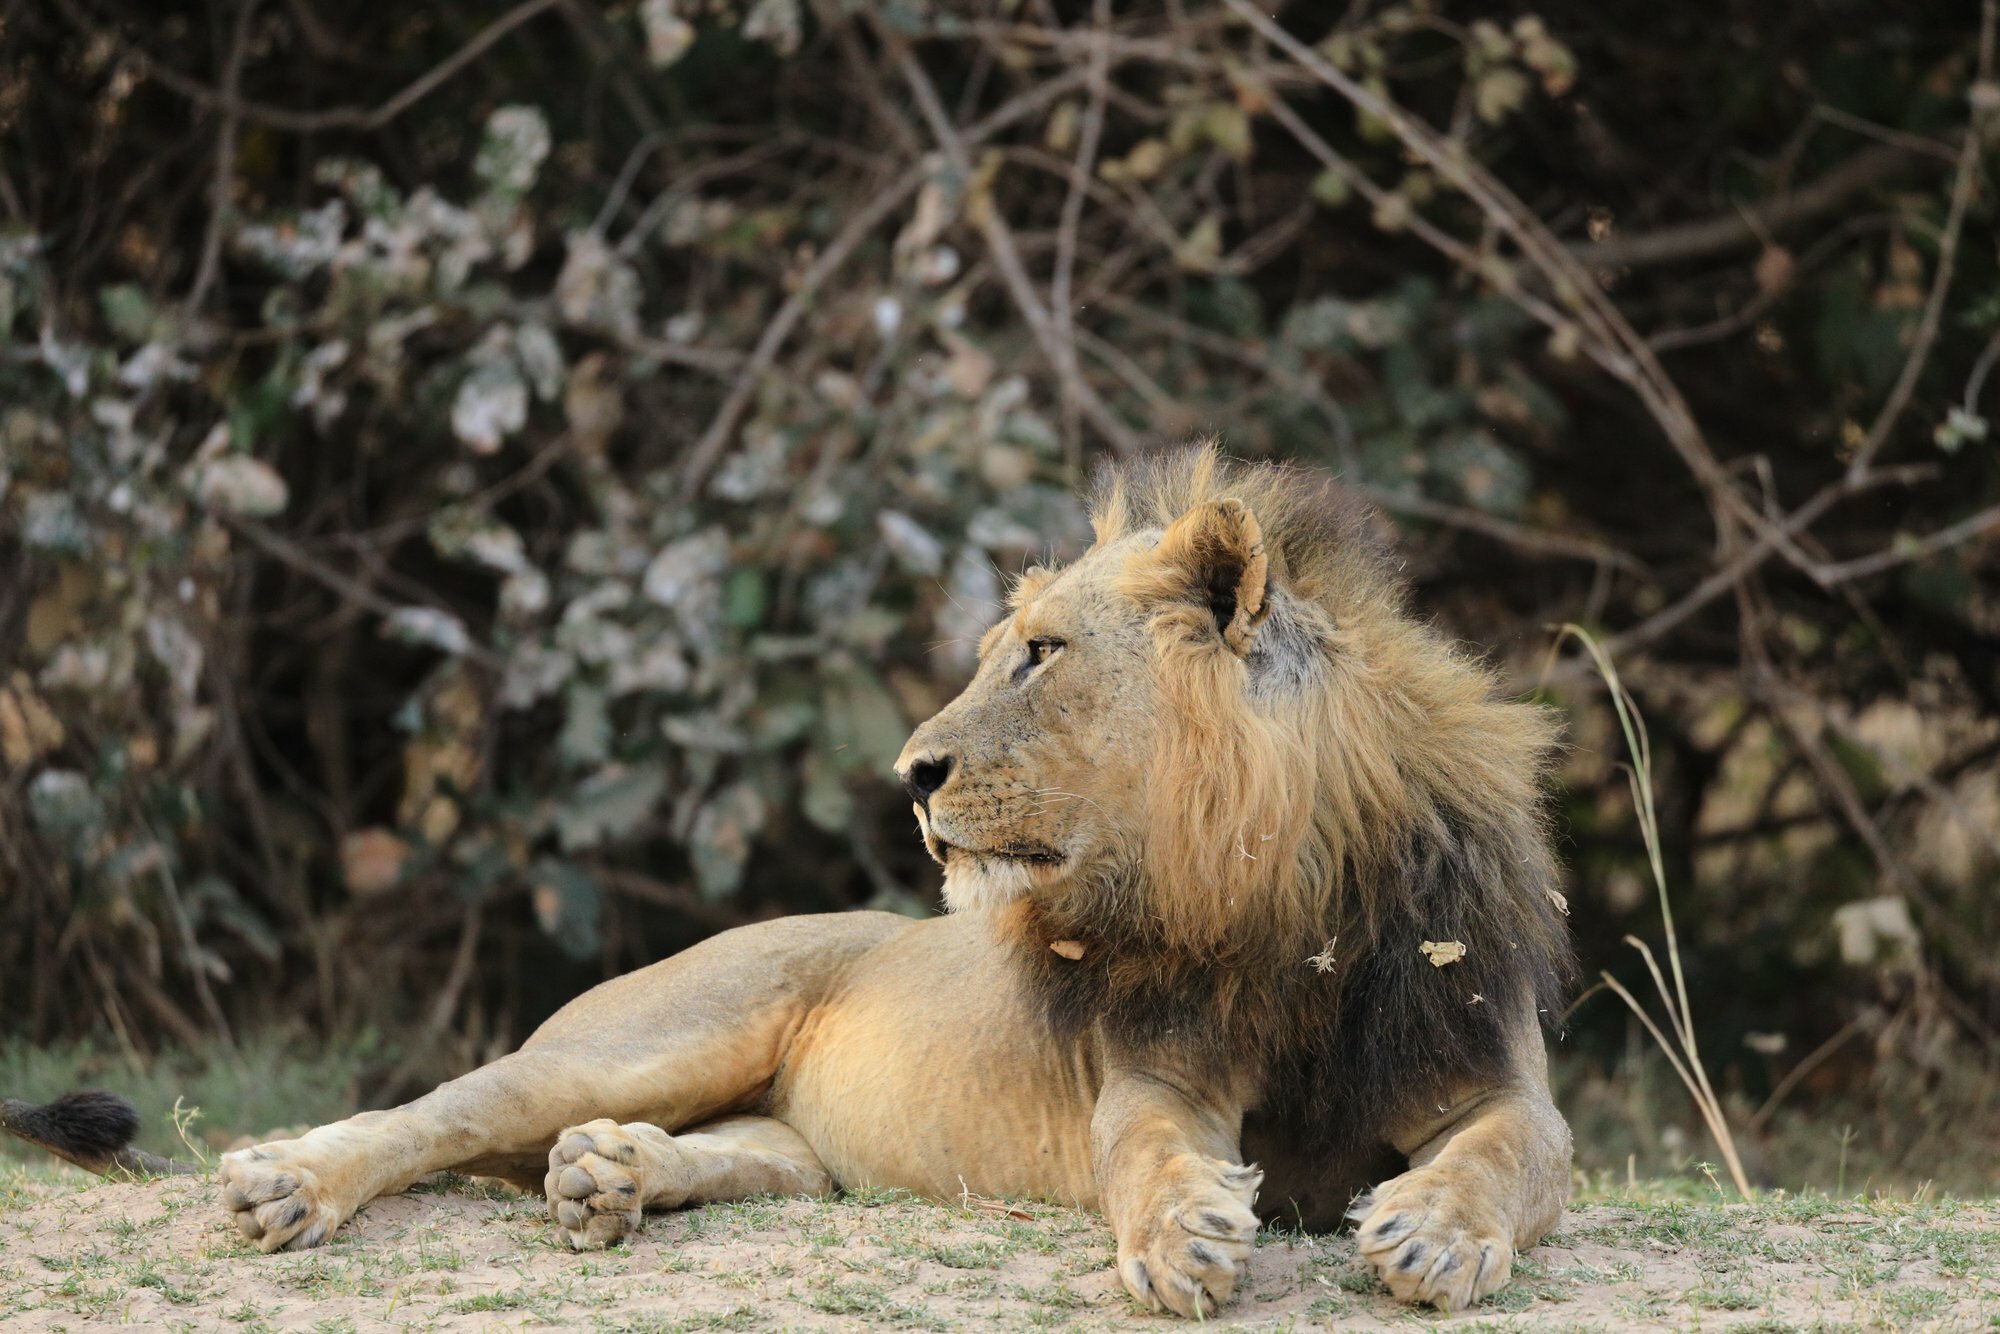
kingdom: Animalia
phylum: Chordata
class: Mammalia
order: Carnivora
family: Felidae
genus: Panthera
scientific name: Panthera leo
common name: Lion
